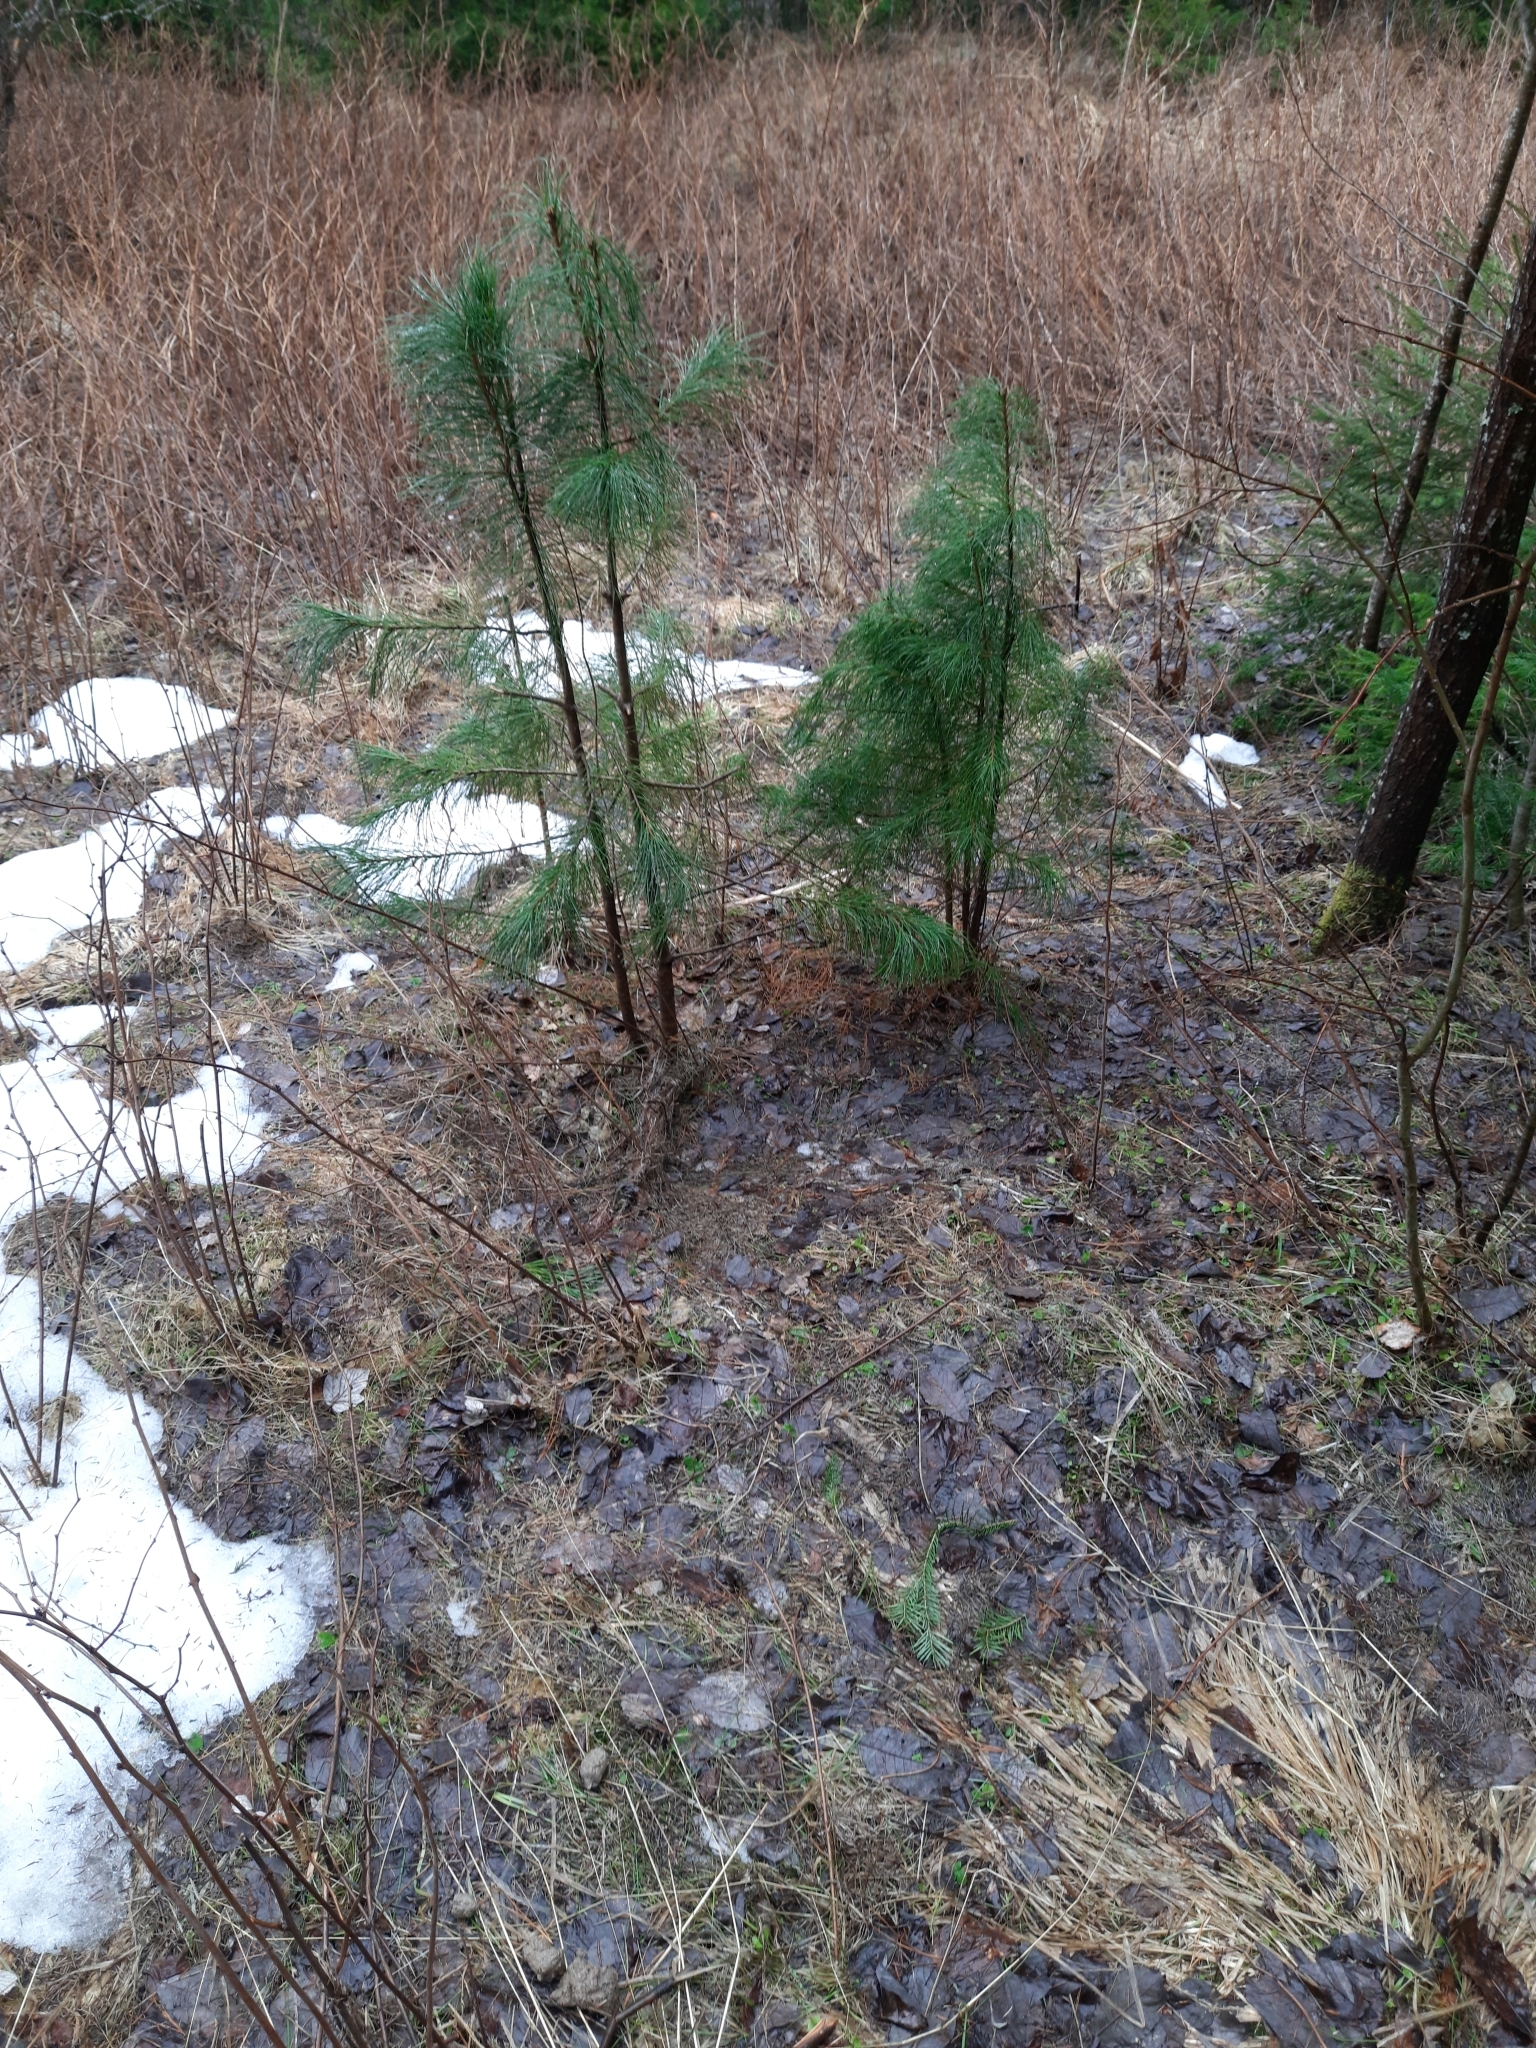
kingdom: Plantae
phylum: Tracheophyta
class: Pinopsida
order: Pinales
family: Pinaceae
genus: Pinus
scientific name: Pinus sibirica
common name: Siberian pine
